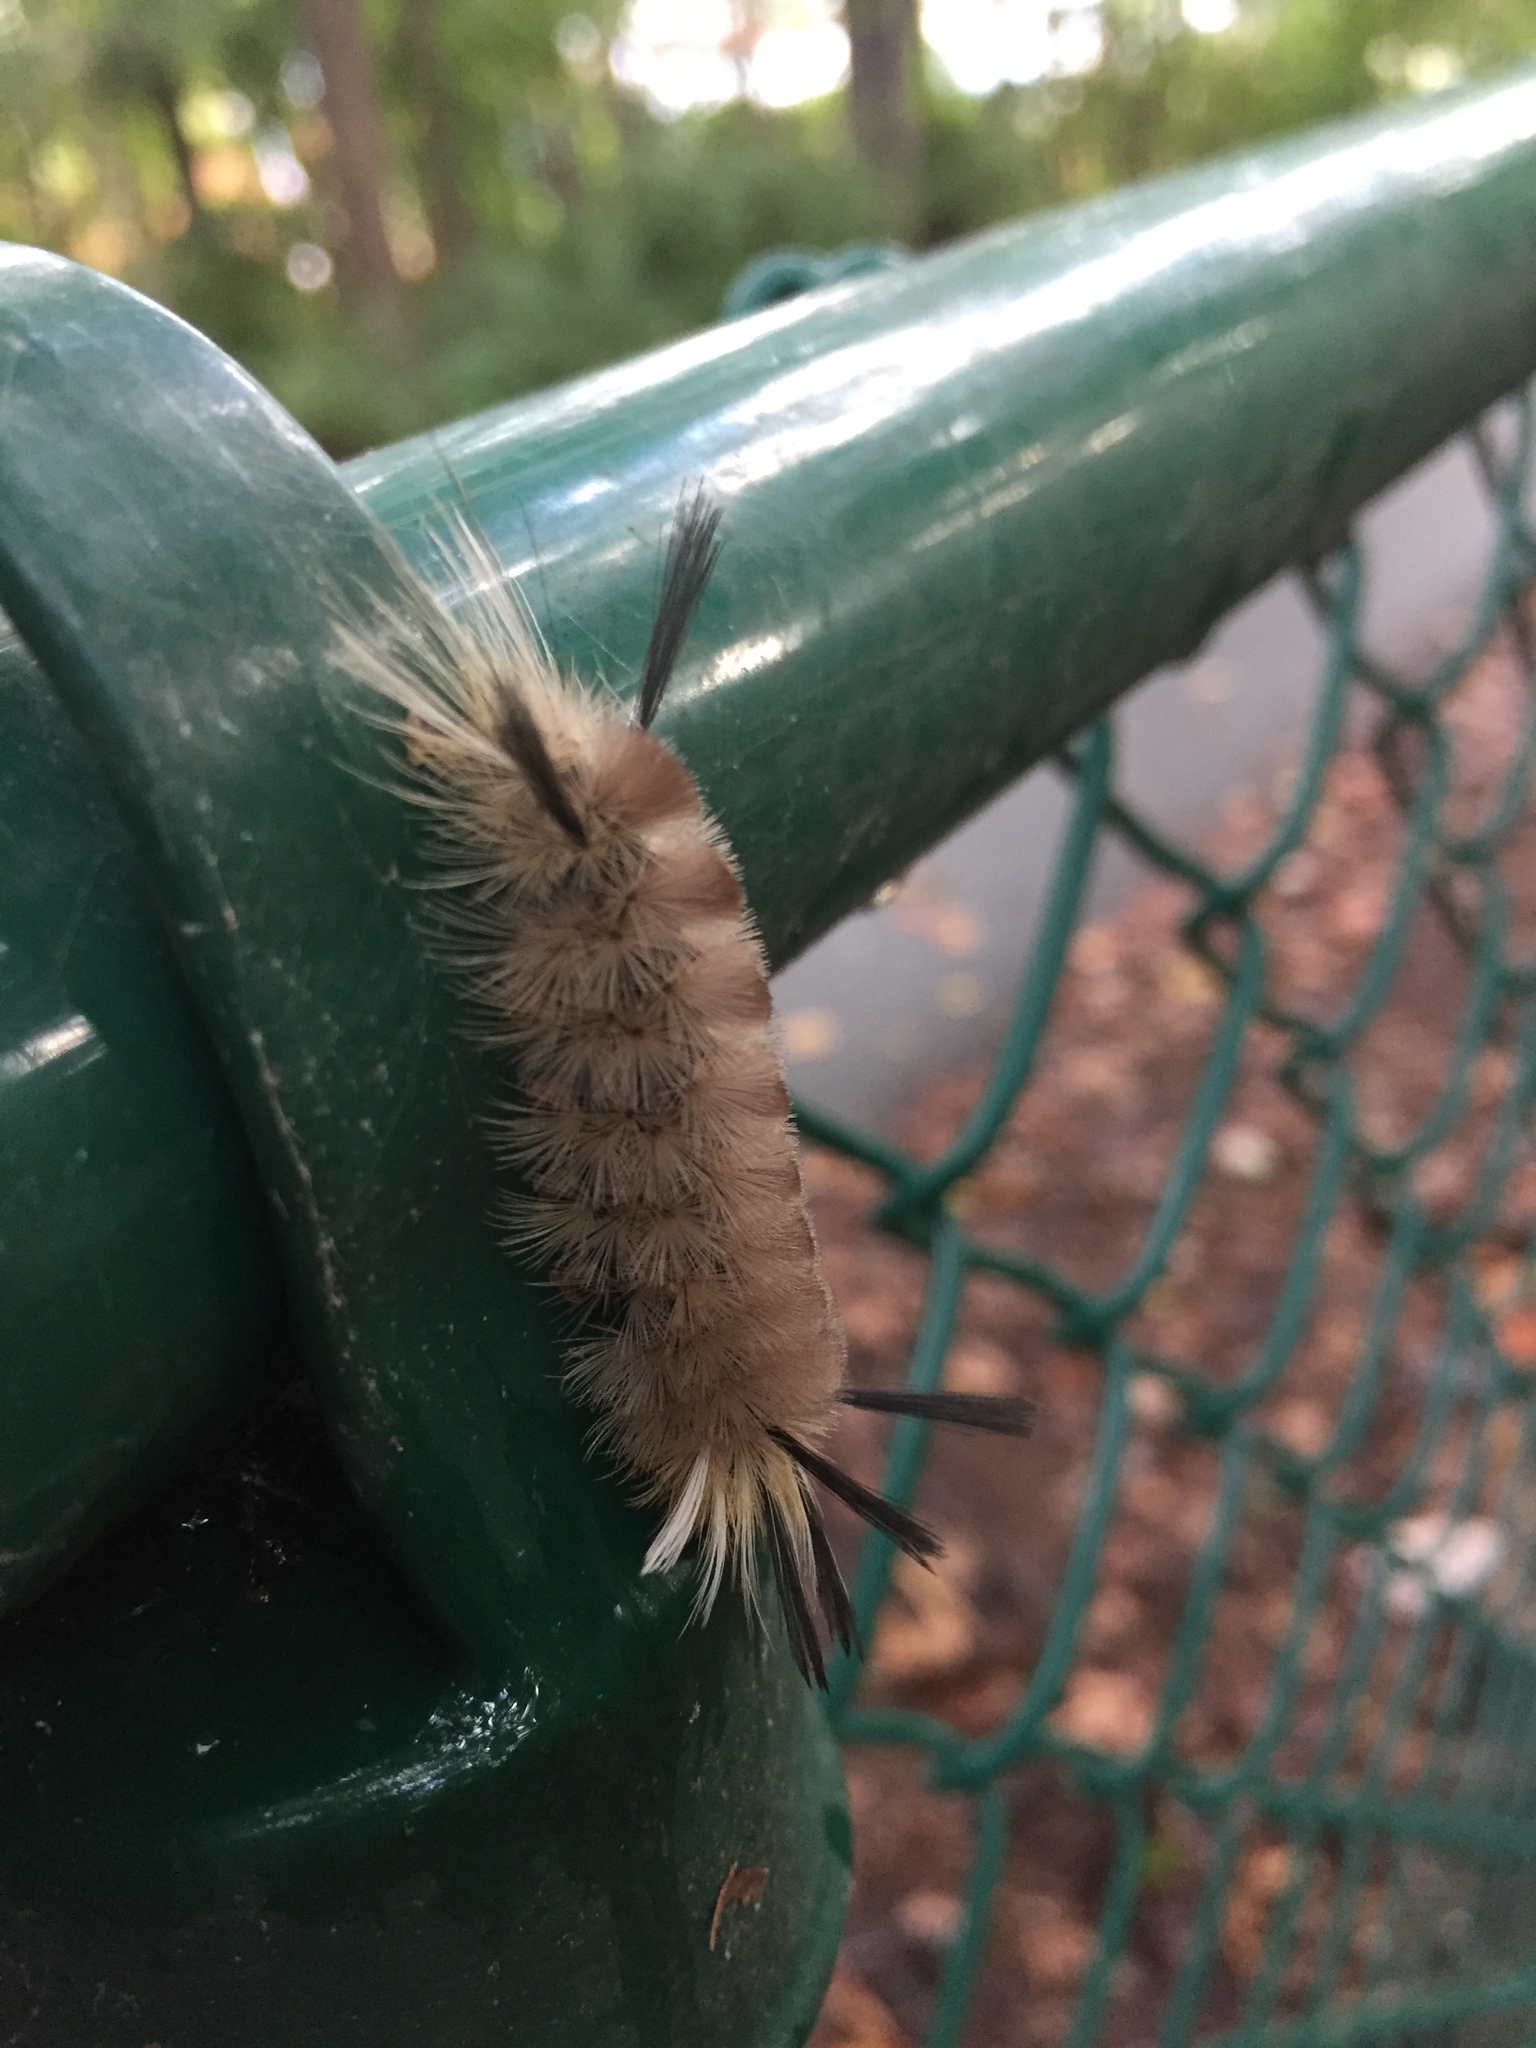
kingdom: Animalia
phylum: Arthropoda
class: Insecta
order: Lepidoptera
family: Erebidae
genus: Halysidota
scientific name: Halysidota tessellaris
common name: Banded tussock moth
